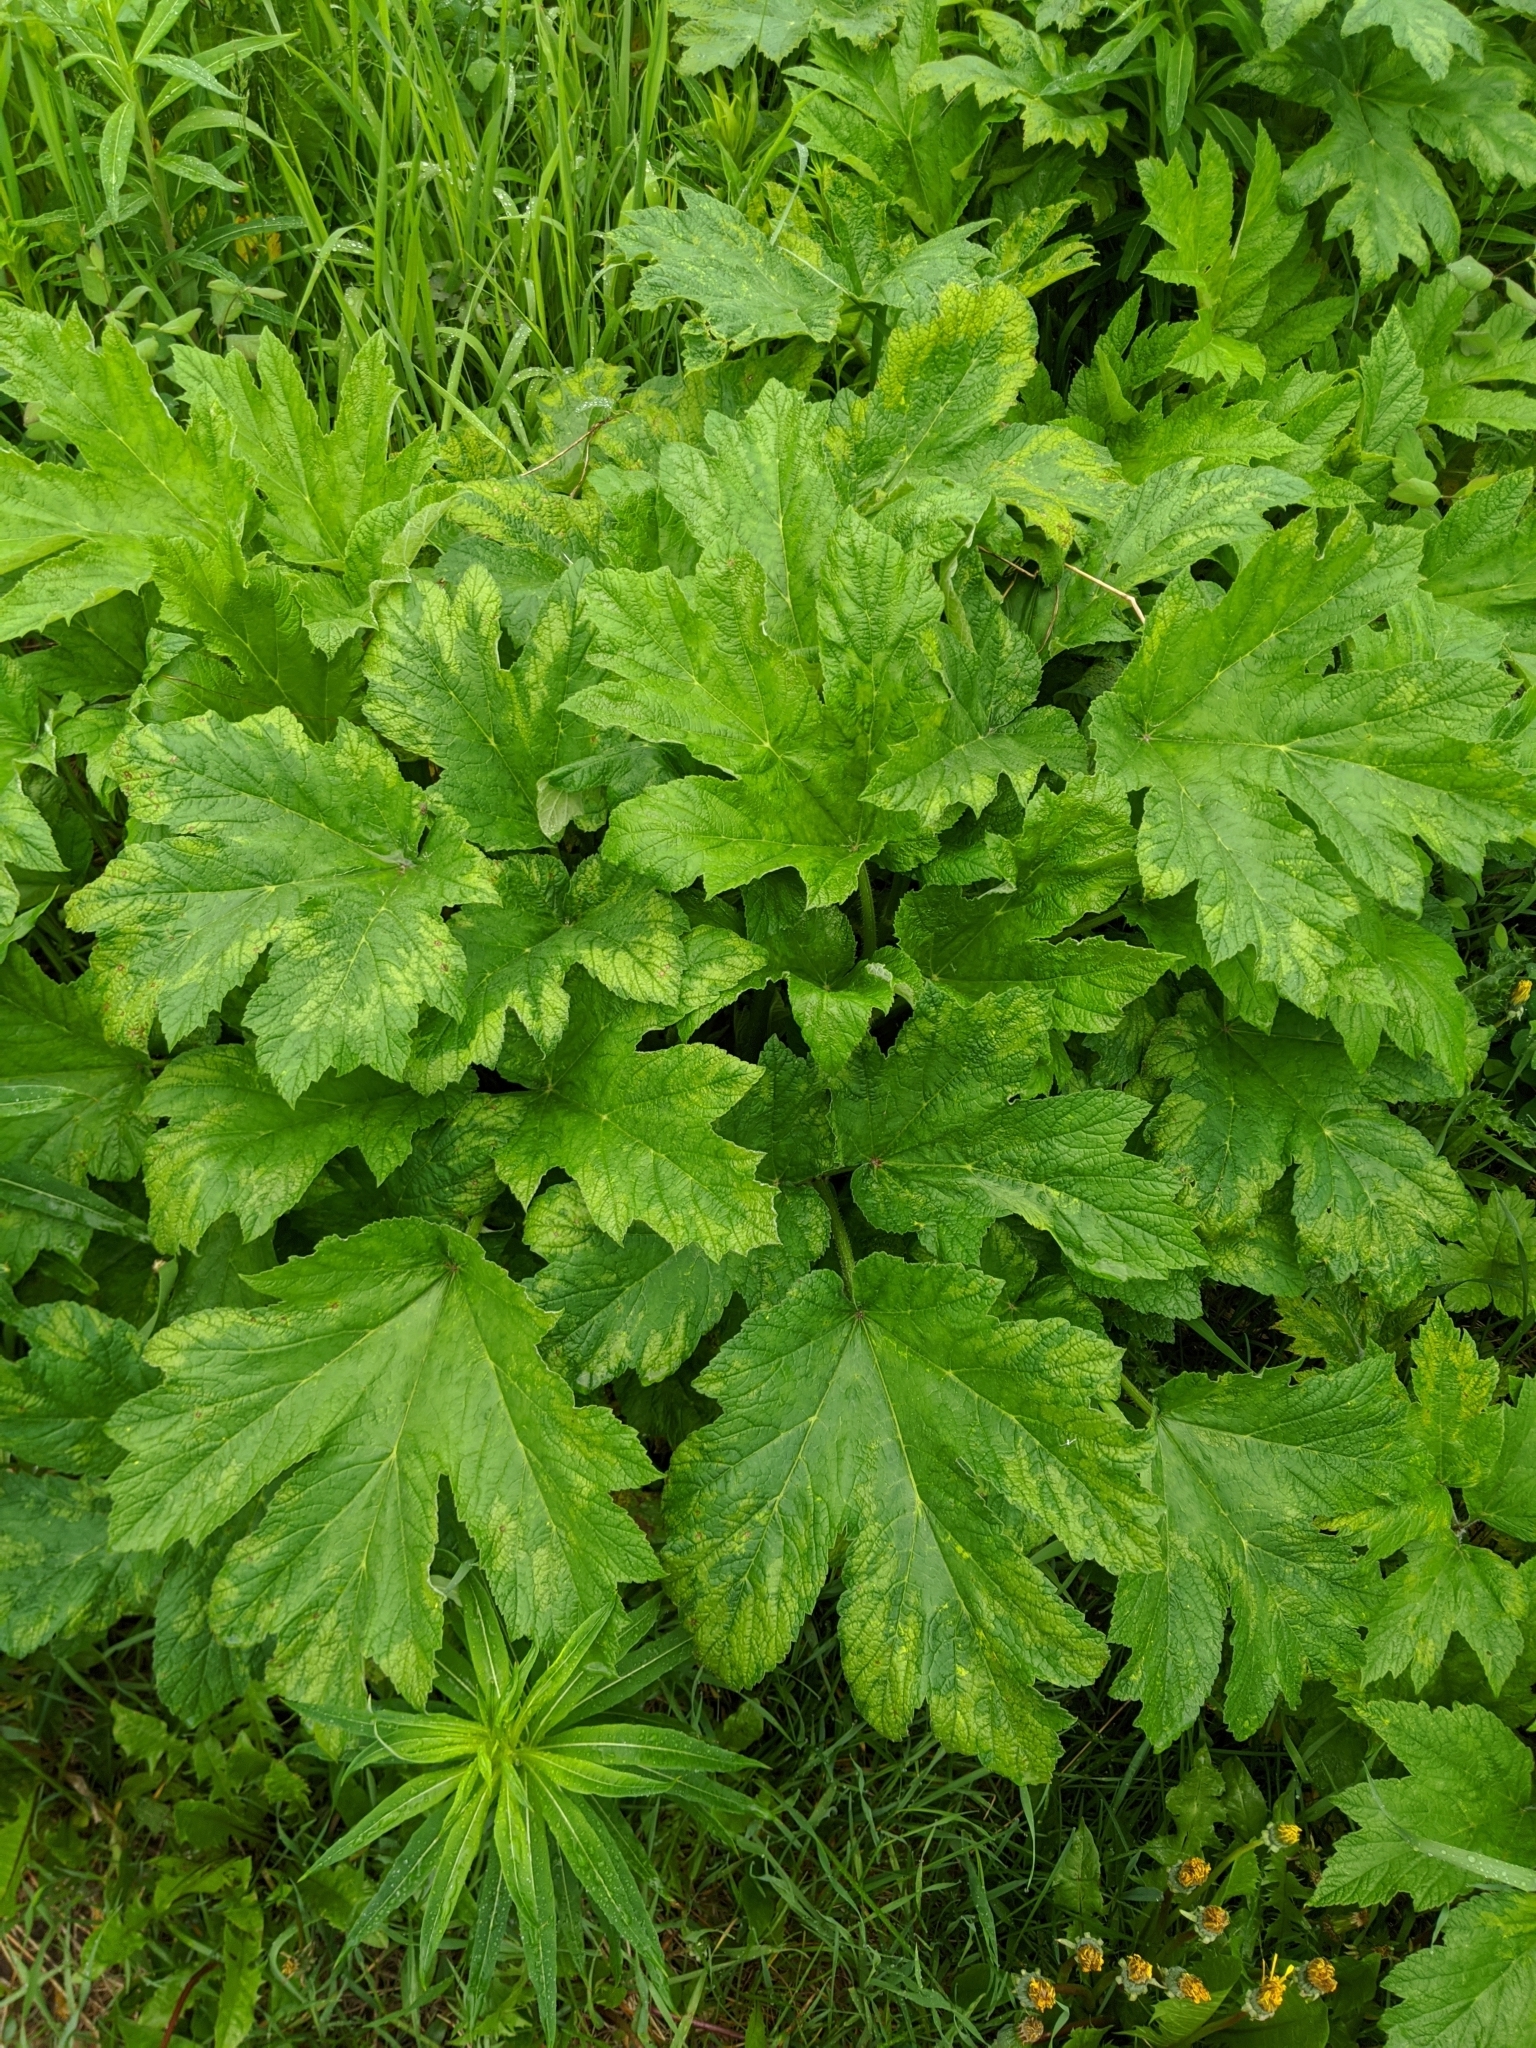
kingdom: Plantae
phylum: Tracheophyta
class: Magnoliopsida
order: Apiales
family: Apiaceae
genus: Heracleum
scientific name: Heracleum maximum
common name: American cow parsnip
